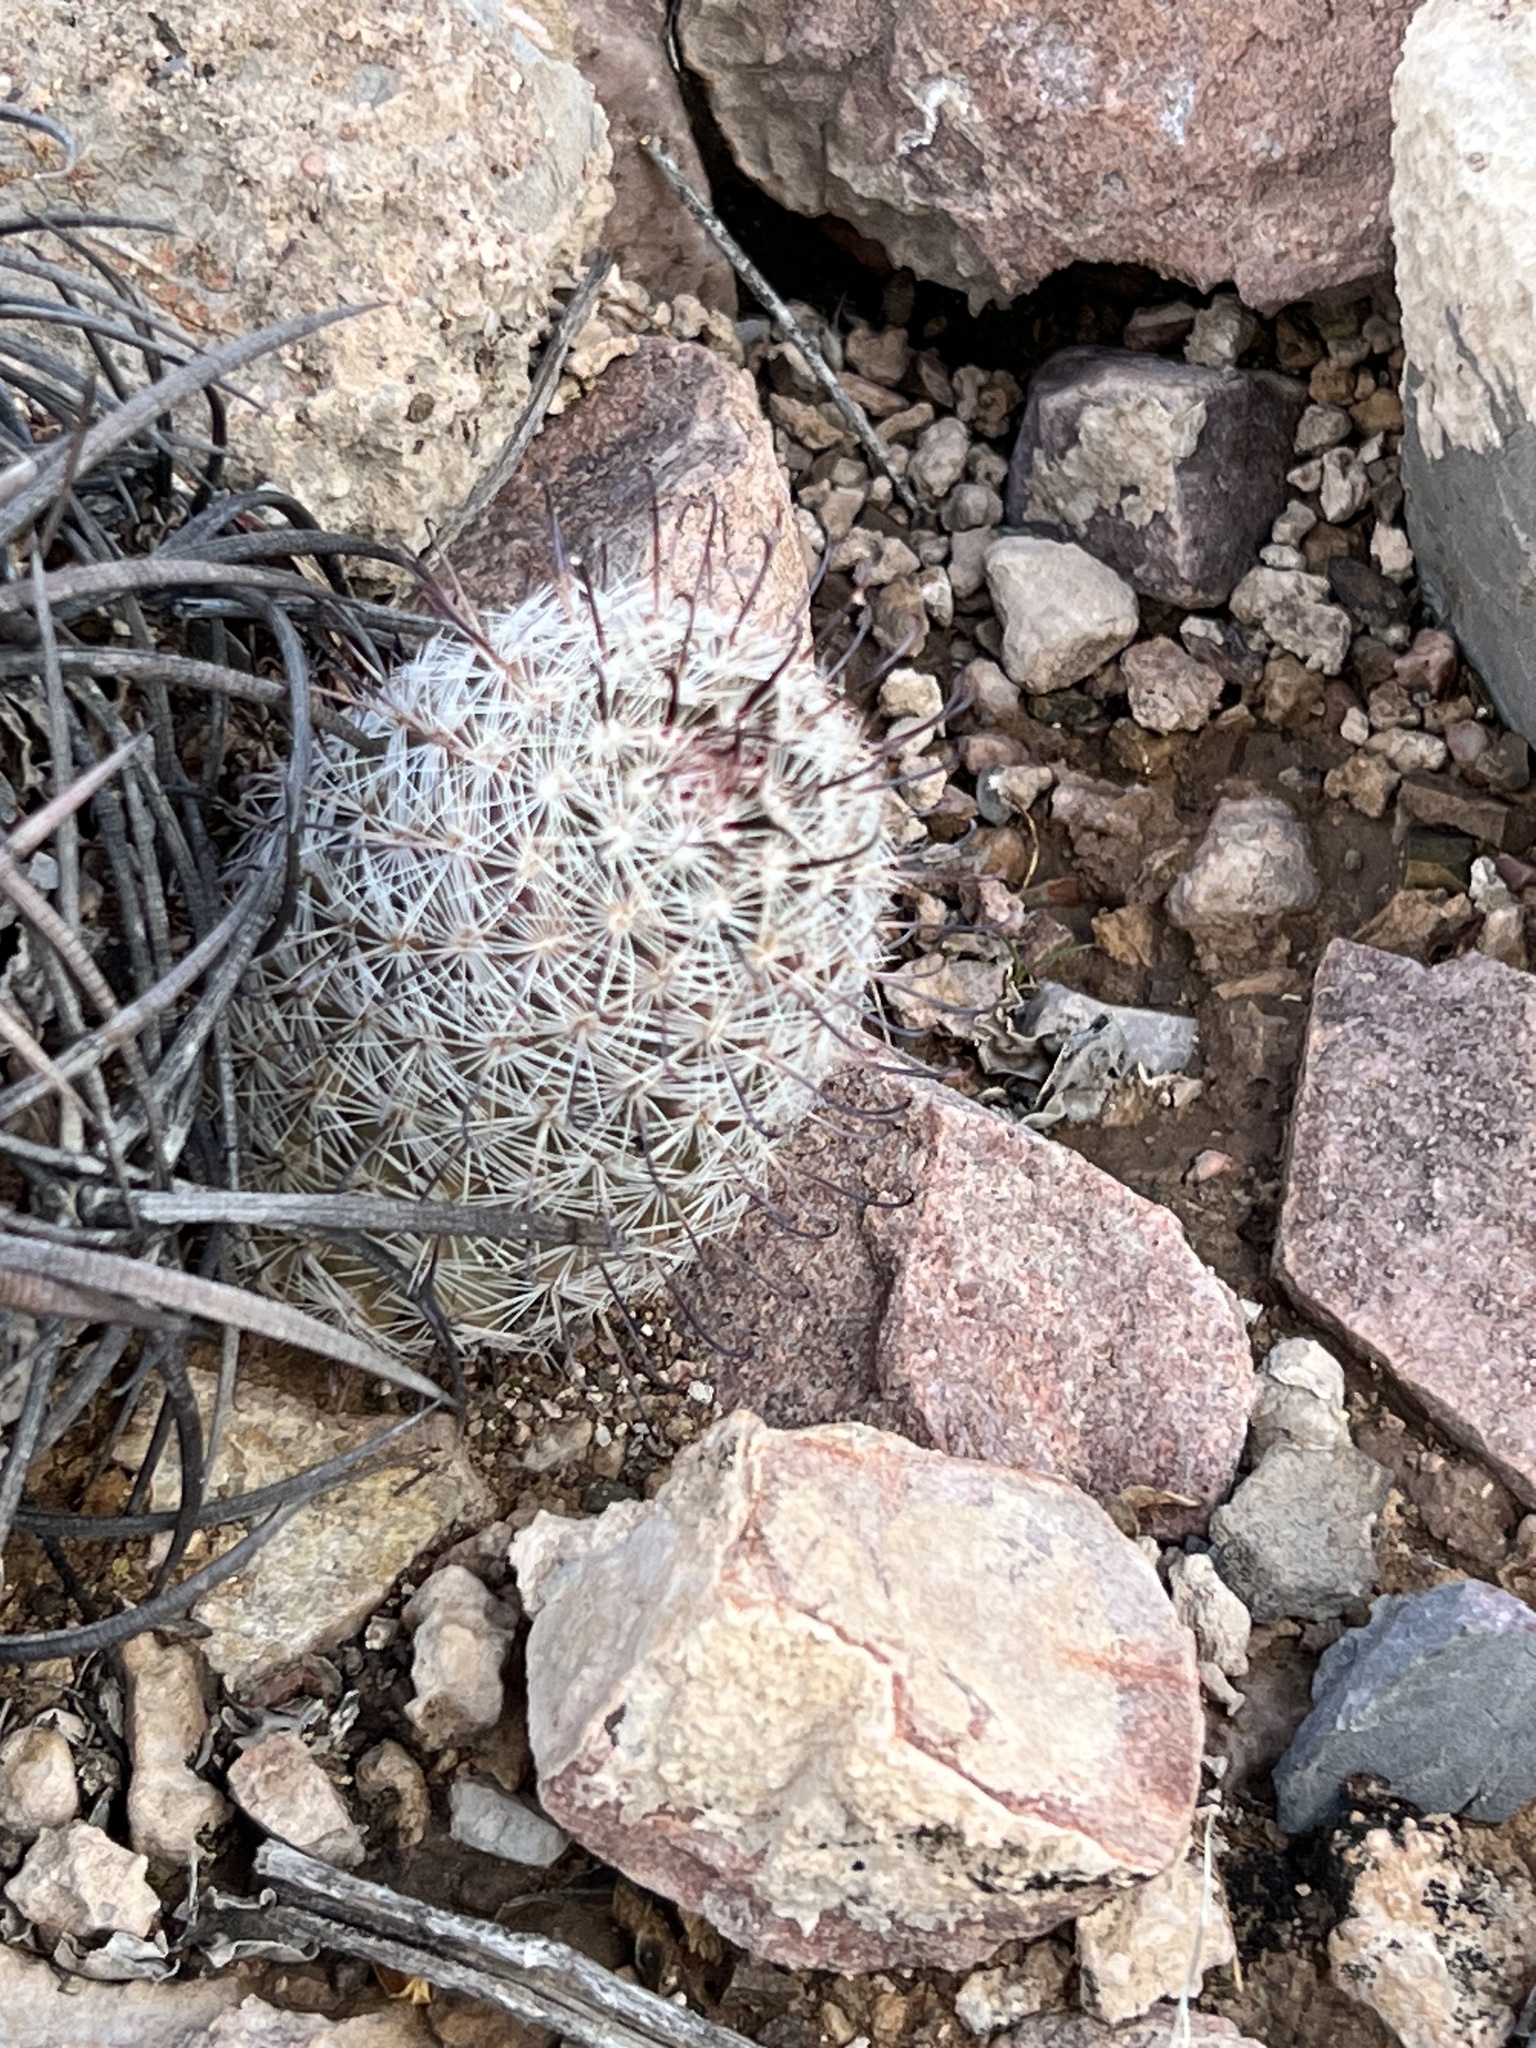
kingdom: Plantae
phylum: Tracheophyta
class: Magnoliopsida
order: Caryophyllales
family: Cactaceae
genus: Cochemiea
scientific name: Cochemiea grahamii
